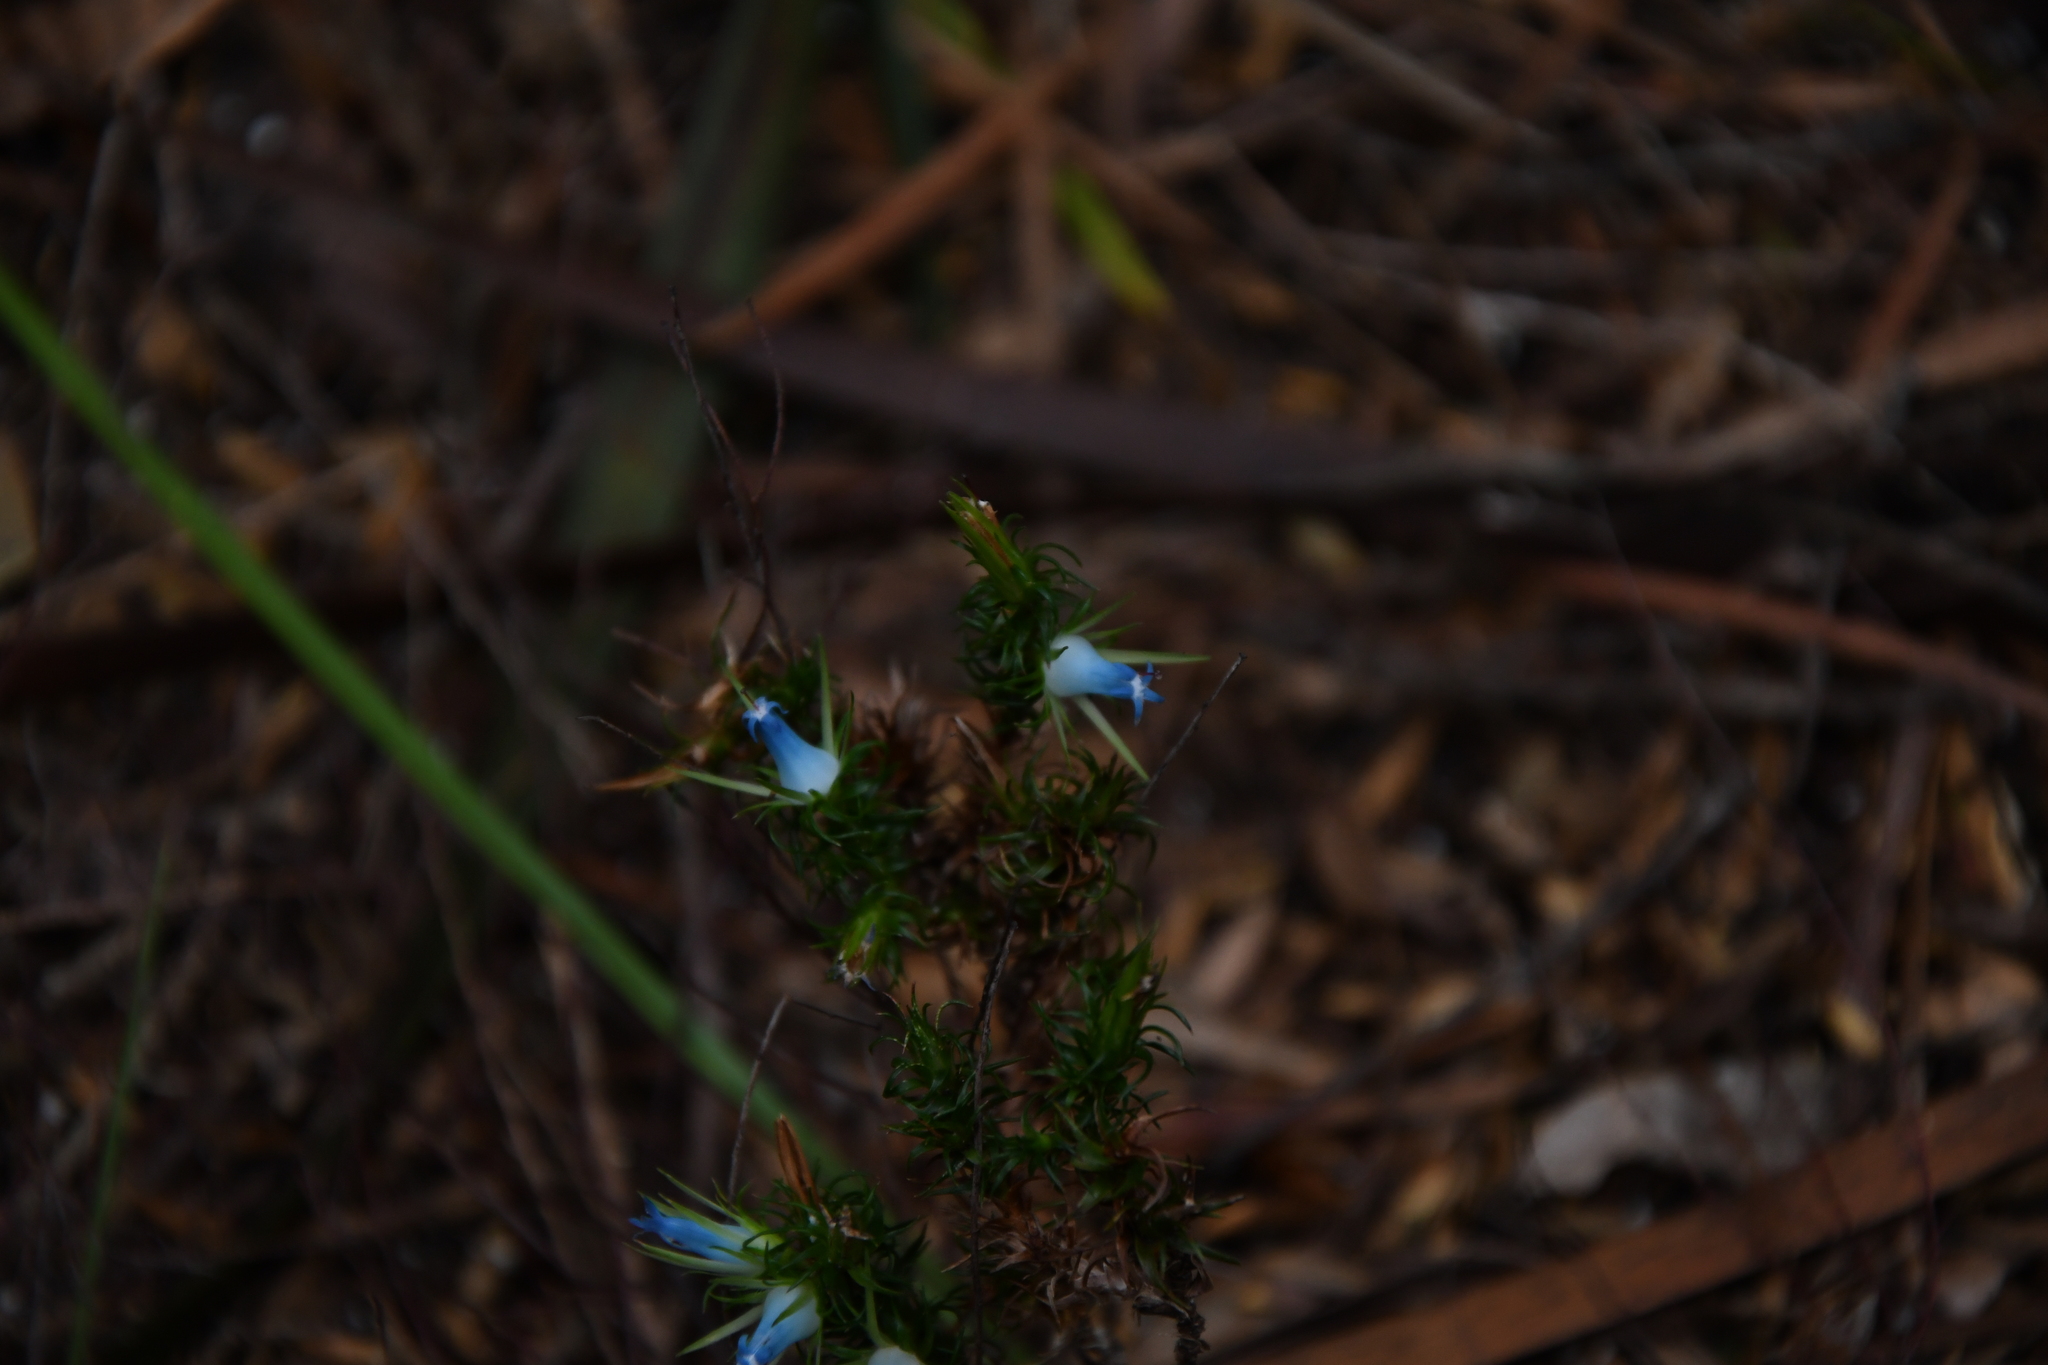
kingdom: Plantae
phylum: Tracheophyta
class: Magnoliopsida
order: Ericales
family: Ericaceae
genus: Andersonia
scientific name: Andersonia hammersleyana
